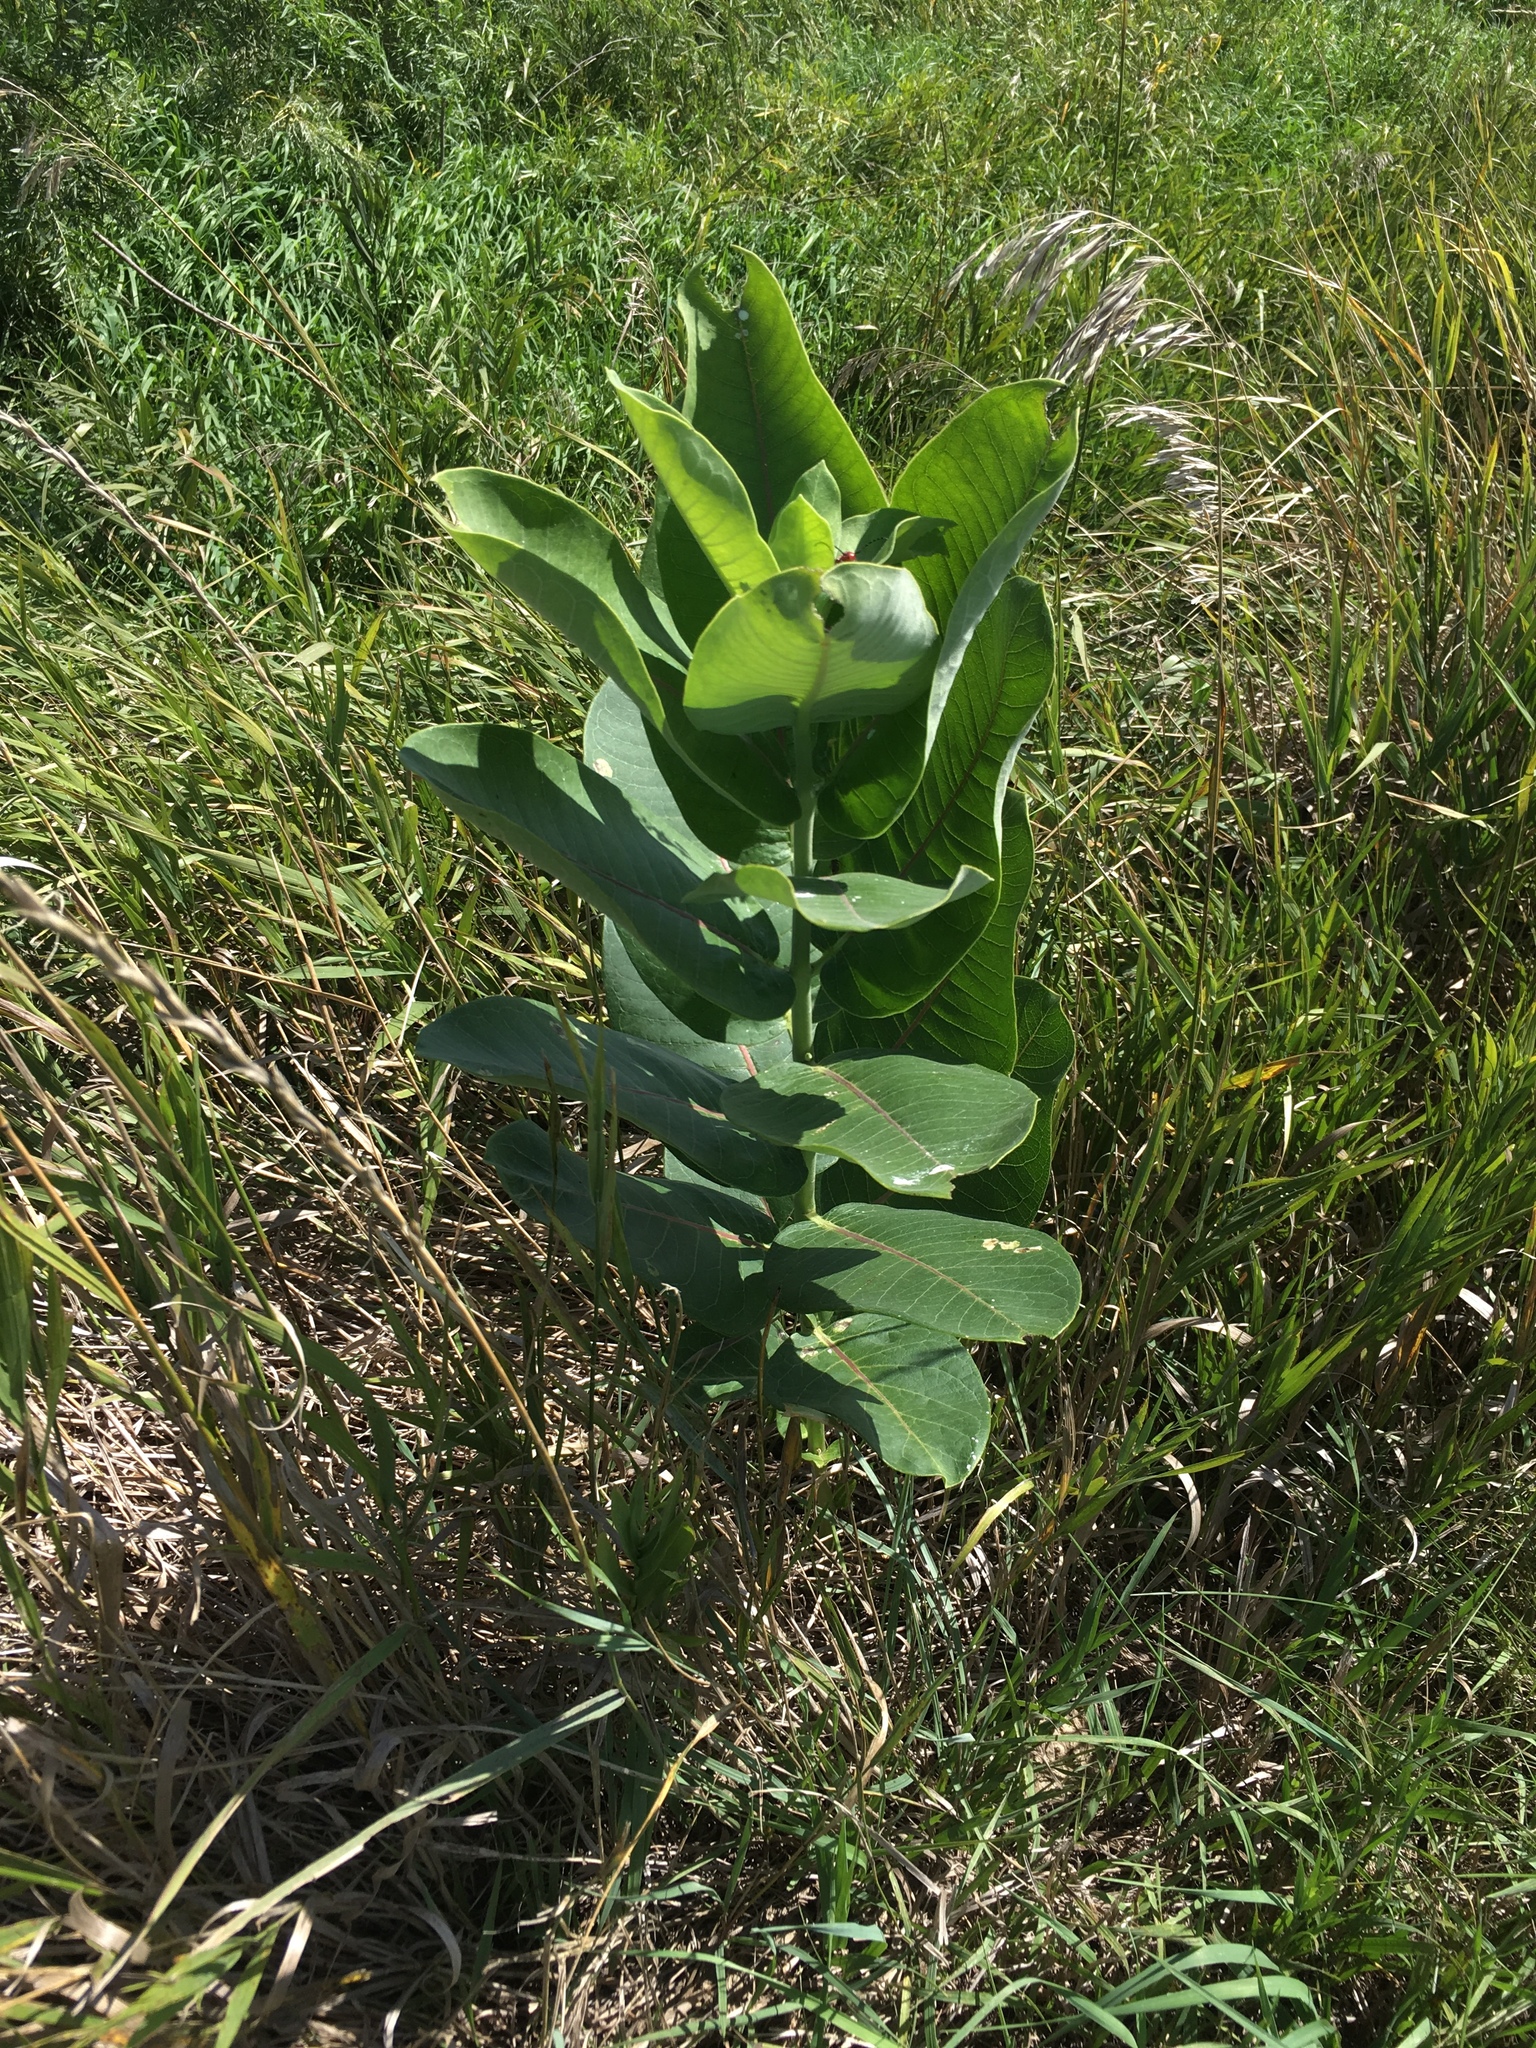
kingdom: Plantae
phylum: Tracheophyta
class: Magnoliopsida
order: Gentianales
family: Apocynaceae
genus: Asclepias
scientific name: Asclepias syriaca
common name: Common milkweed
